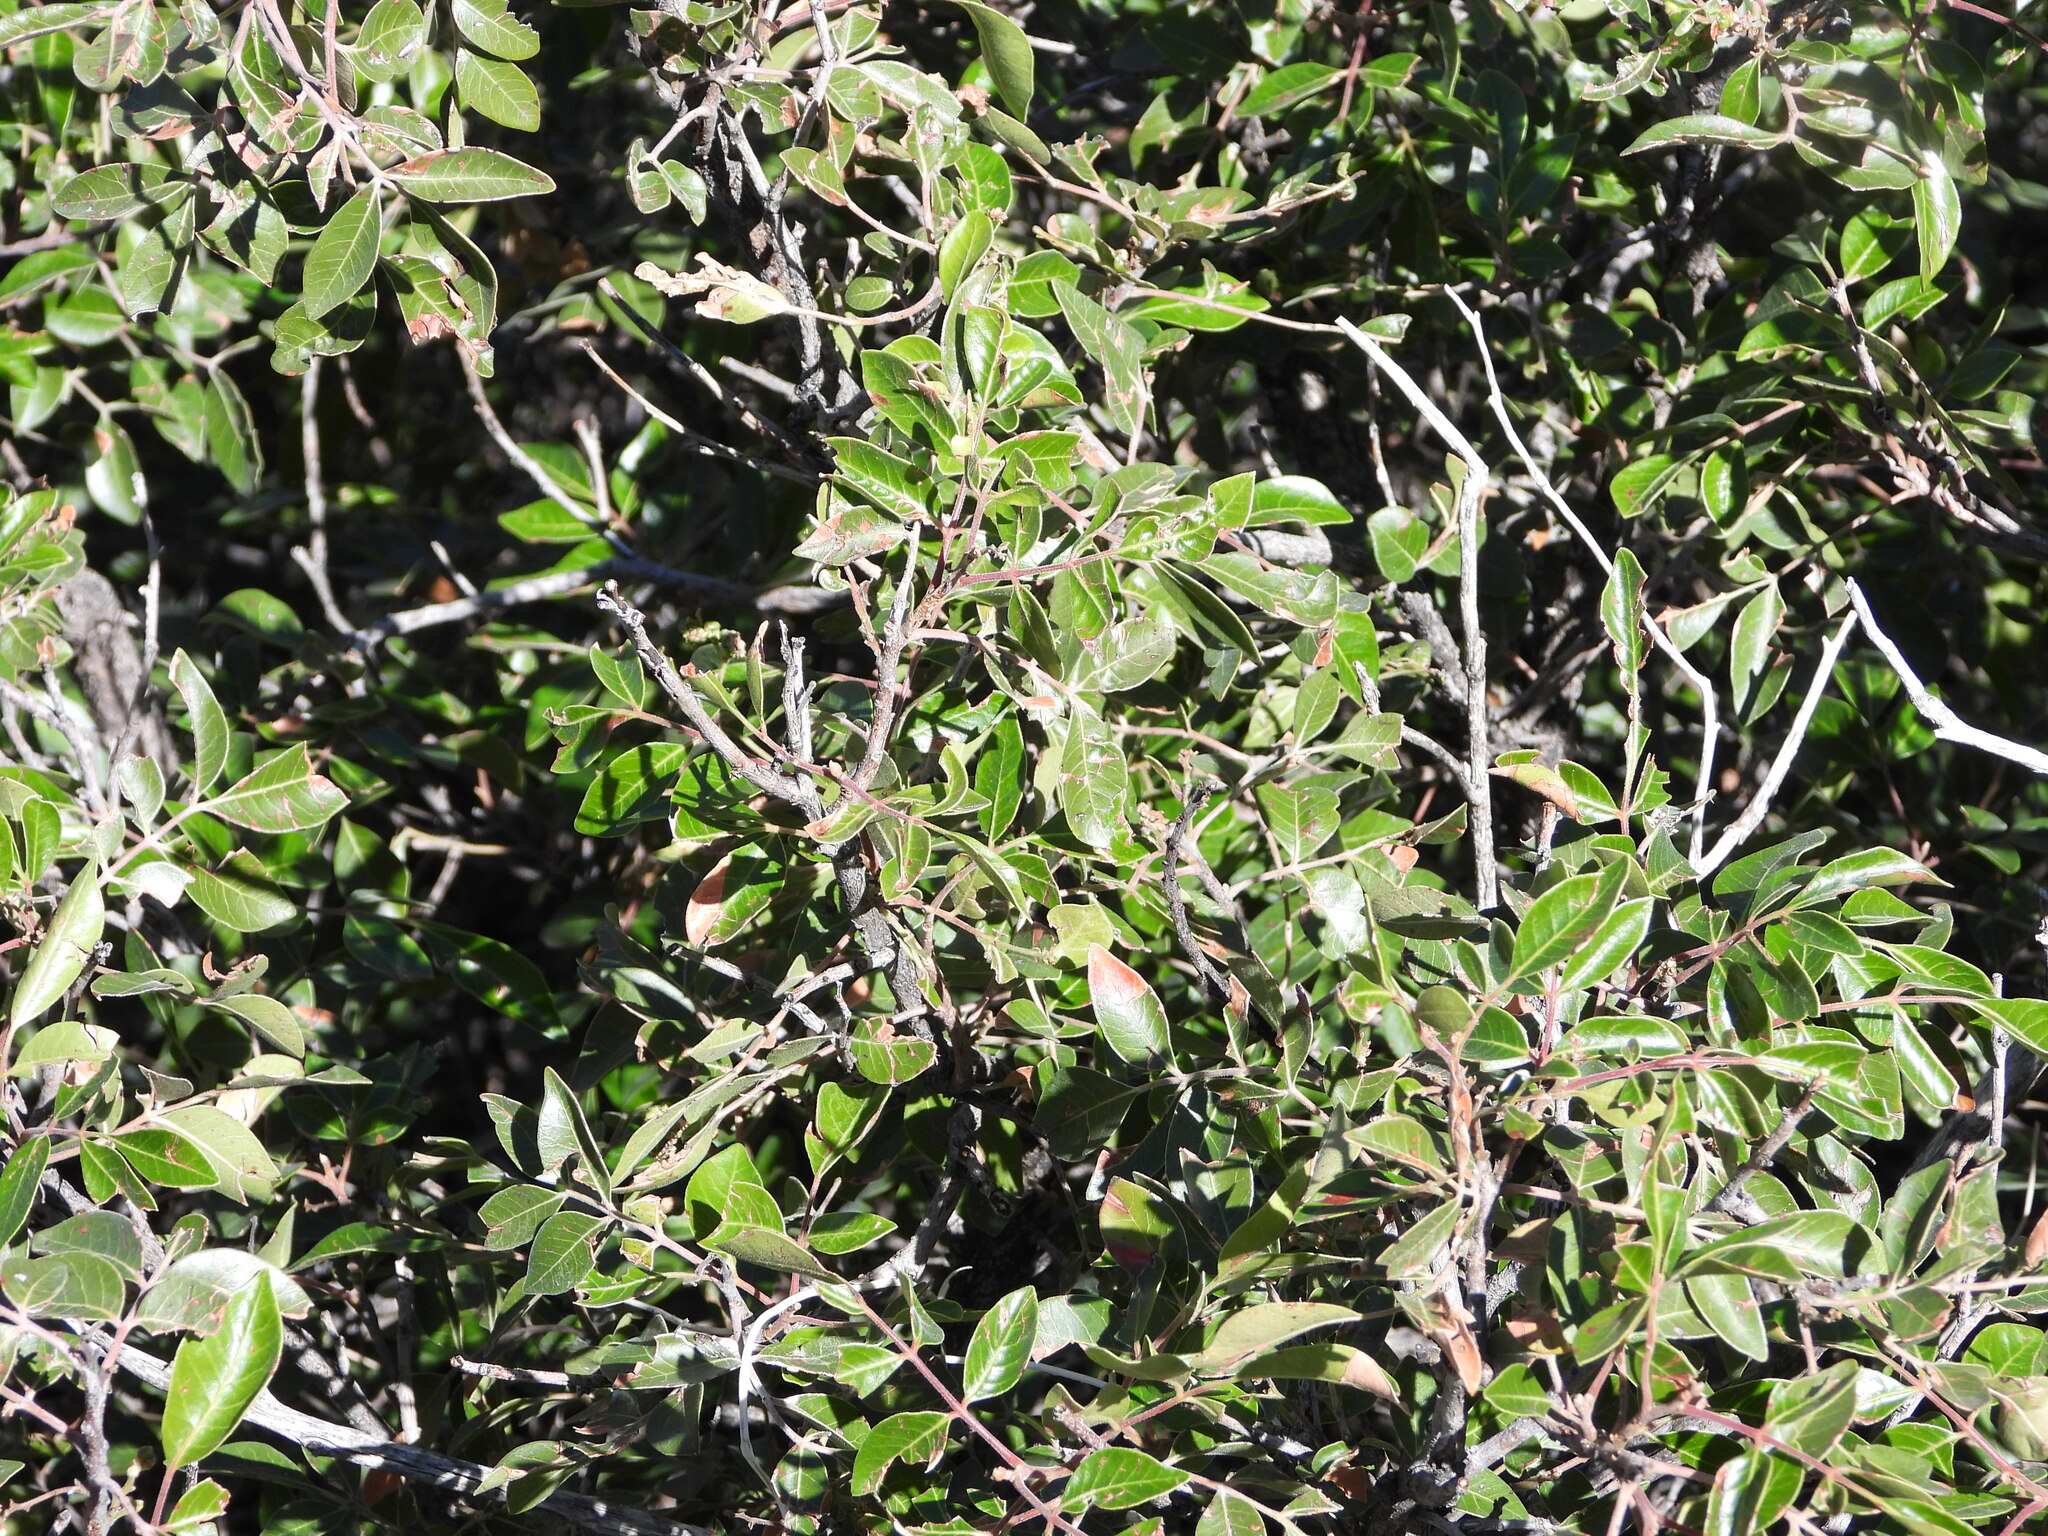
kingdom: Plantae
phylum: Tracheophyta
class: Magnoliopsida
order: Sapindales
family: Anacardiaceae
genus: Rhus
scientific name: Rhus virens
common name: Evergreen sumac
